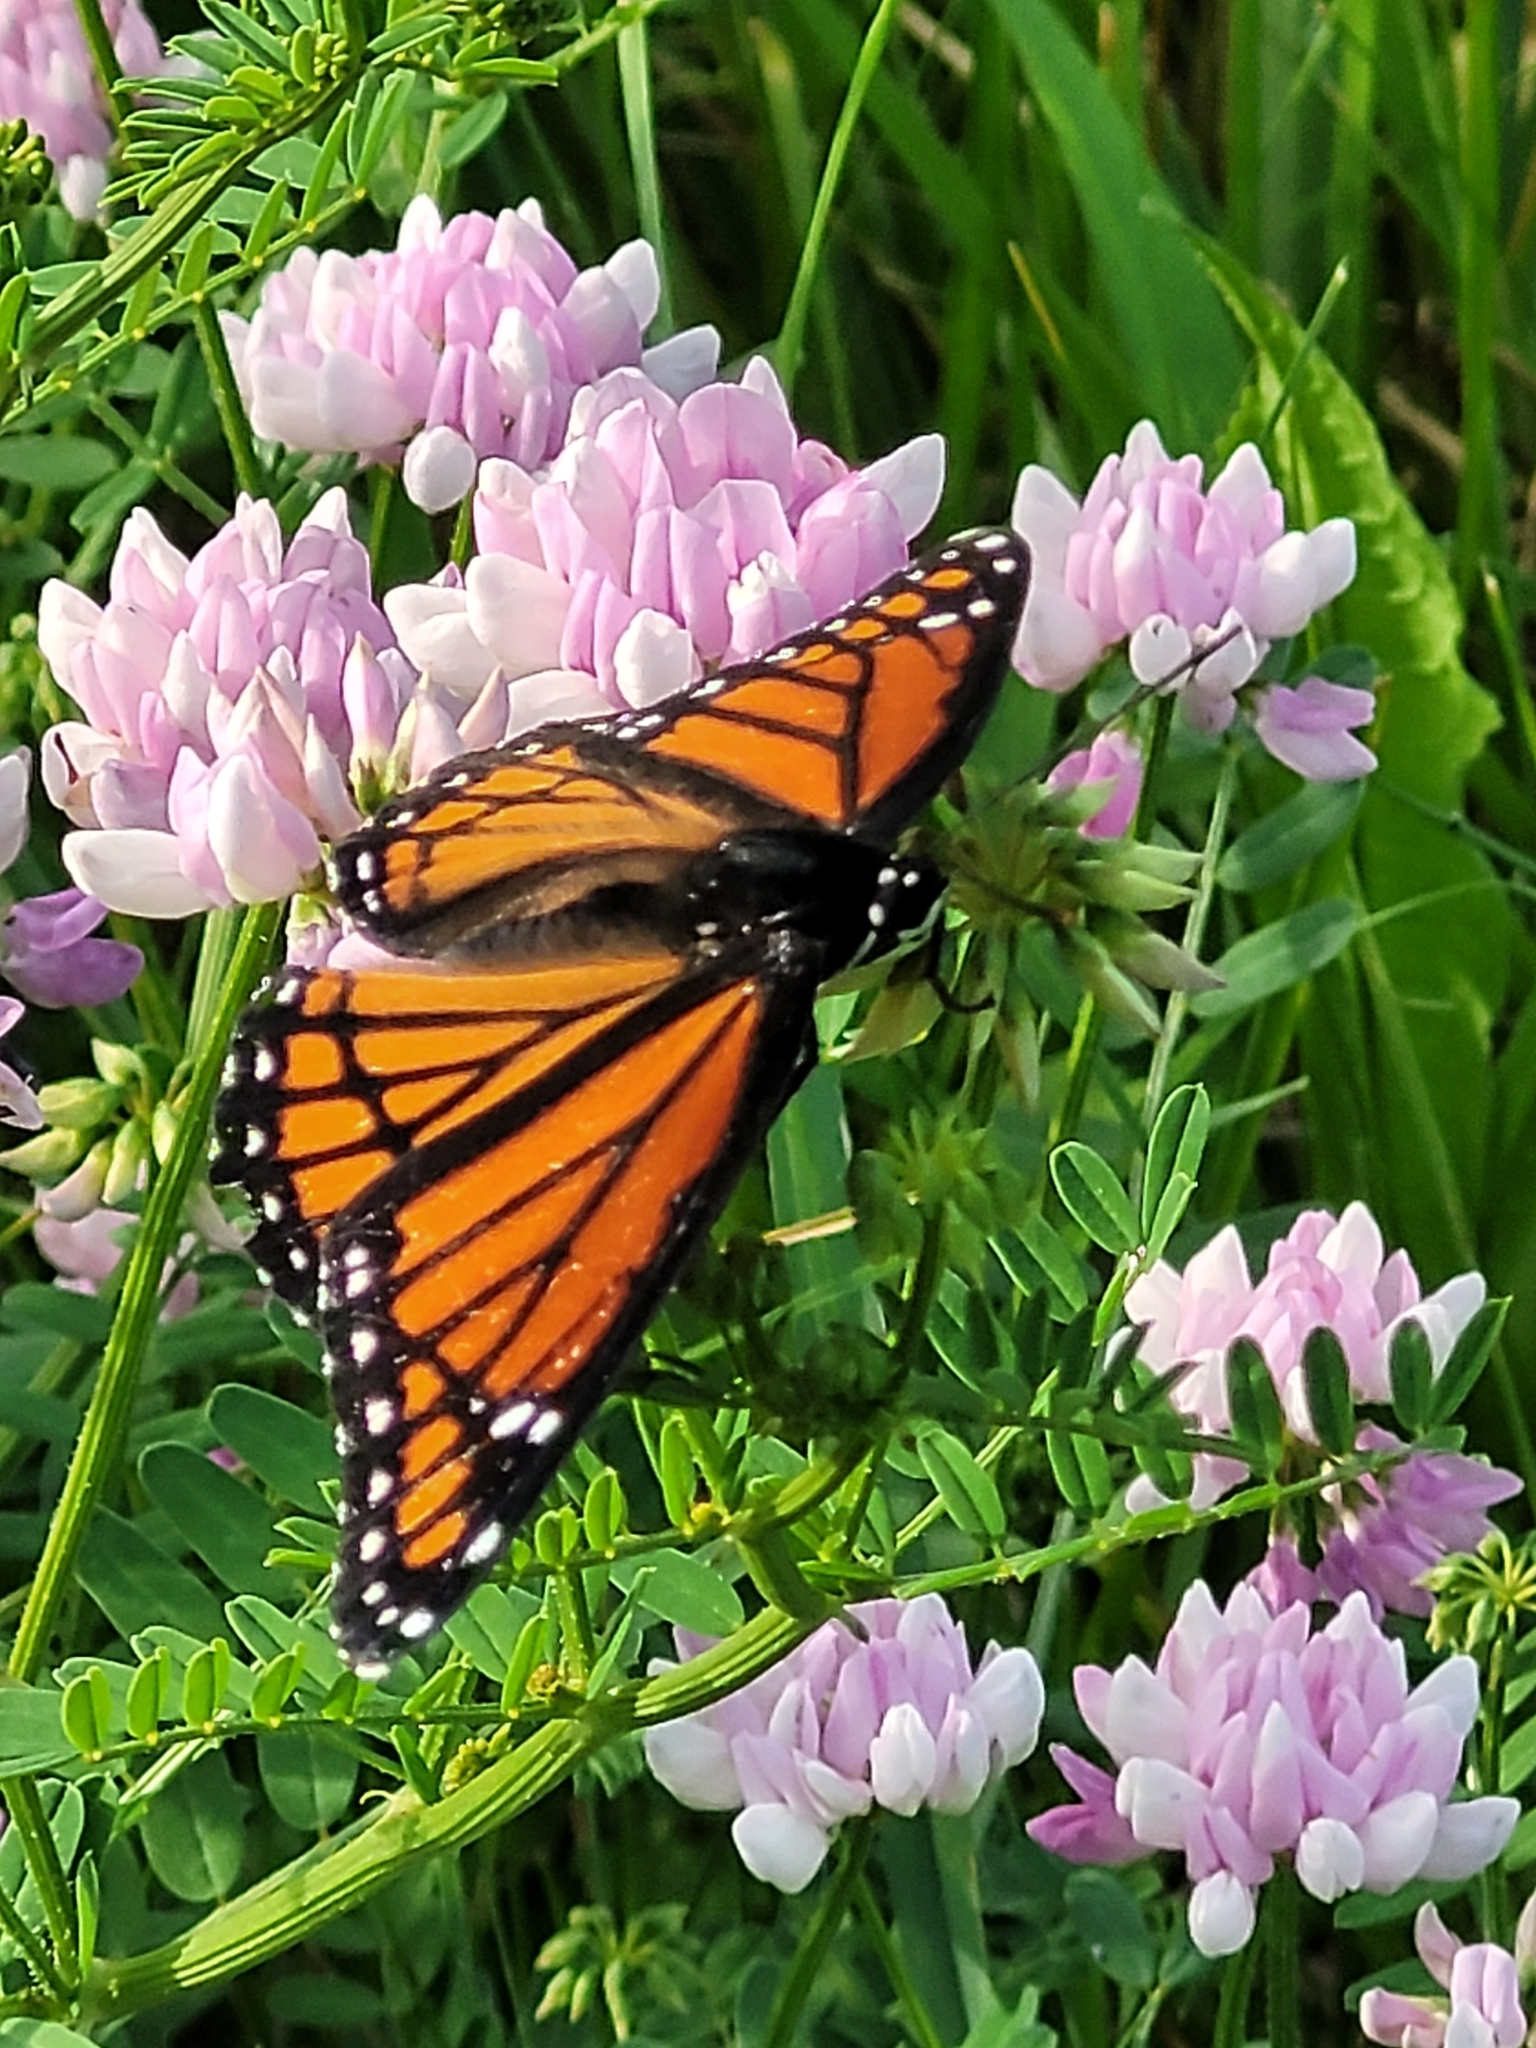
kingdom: Animalia
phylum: Arthropoda
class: Insecta
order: Lepidoptera
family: Nymphalidae
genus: Limenitis
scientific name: Limenitis archippus
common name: Viceroy
